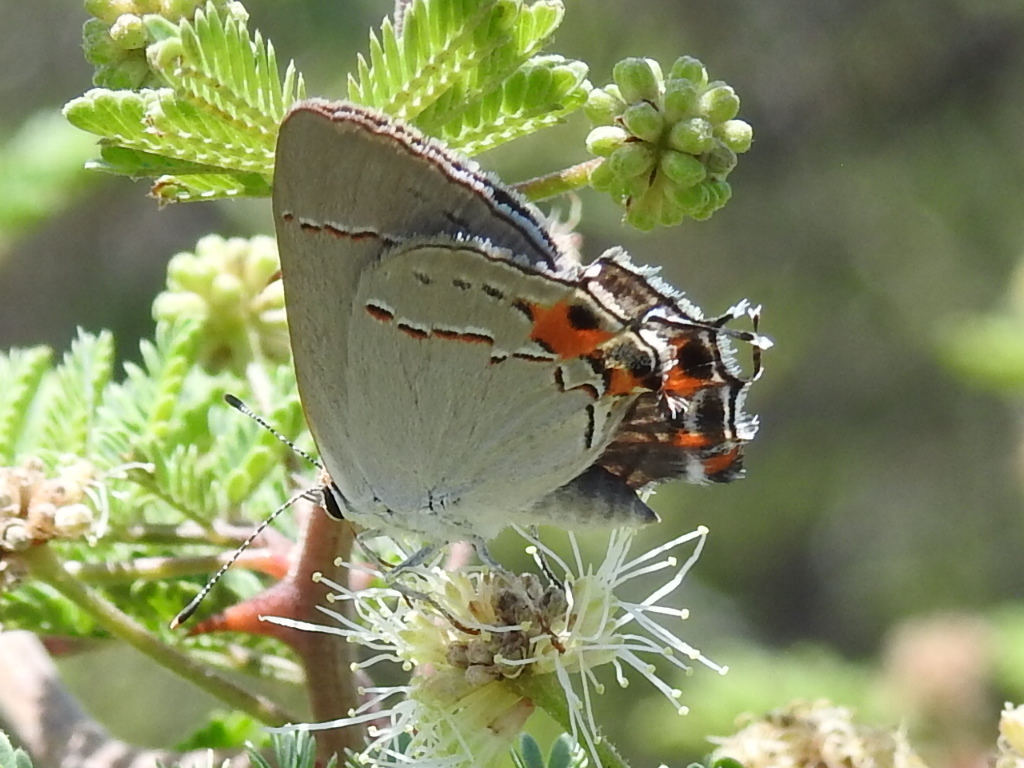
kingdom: Animalia
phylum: Arthropoda
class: Insecta
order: Lepidoptera
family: Lycaenidae
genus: Strymon
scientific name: Strymon melinus
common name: Gray hairstreak
